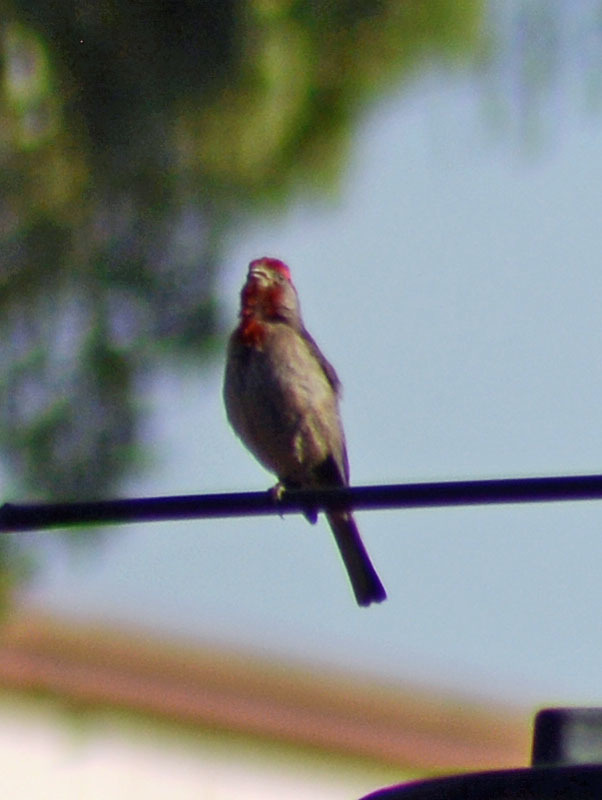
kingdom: Animalia
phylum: Chordata
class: Aves
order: Passeriformes
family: Fringillidae
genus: Haemorhous
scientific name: Haemorhous mexicanus
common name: House finch
